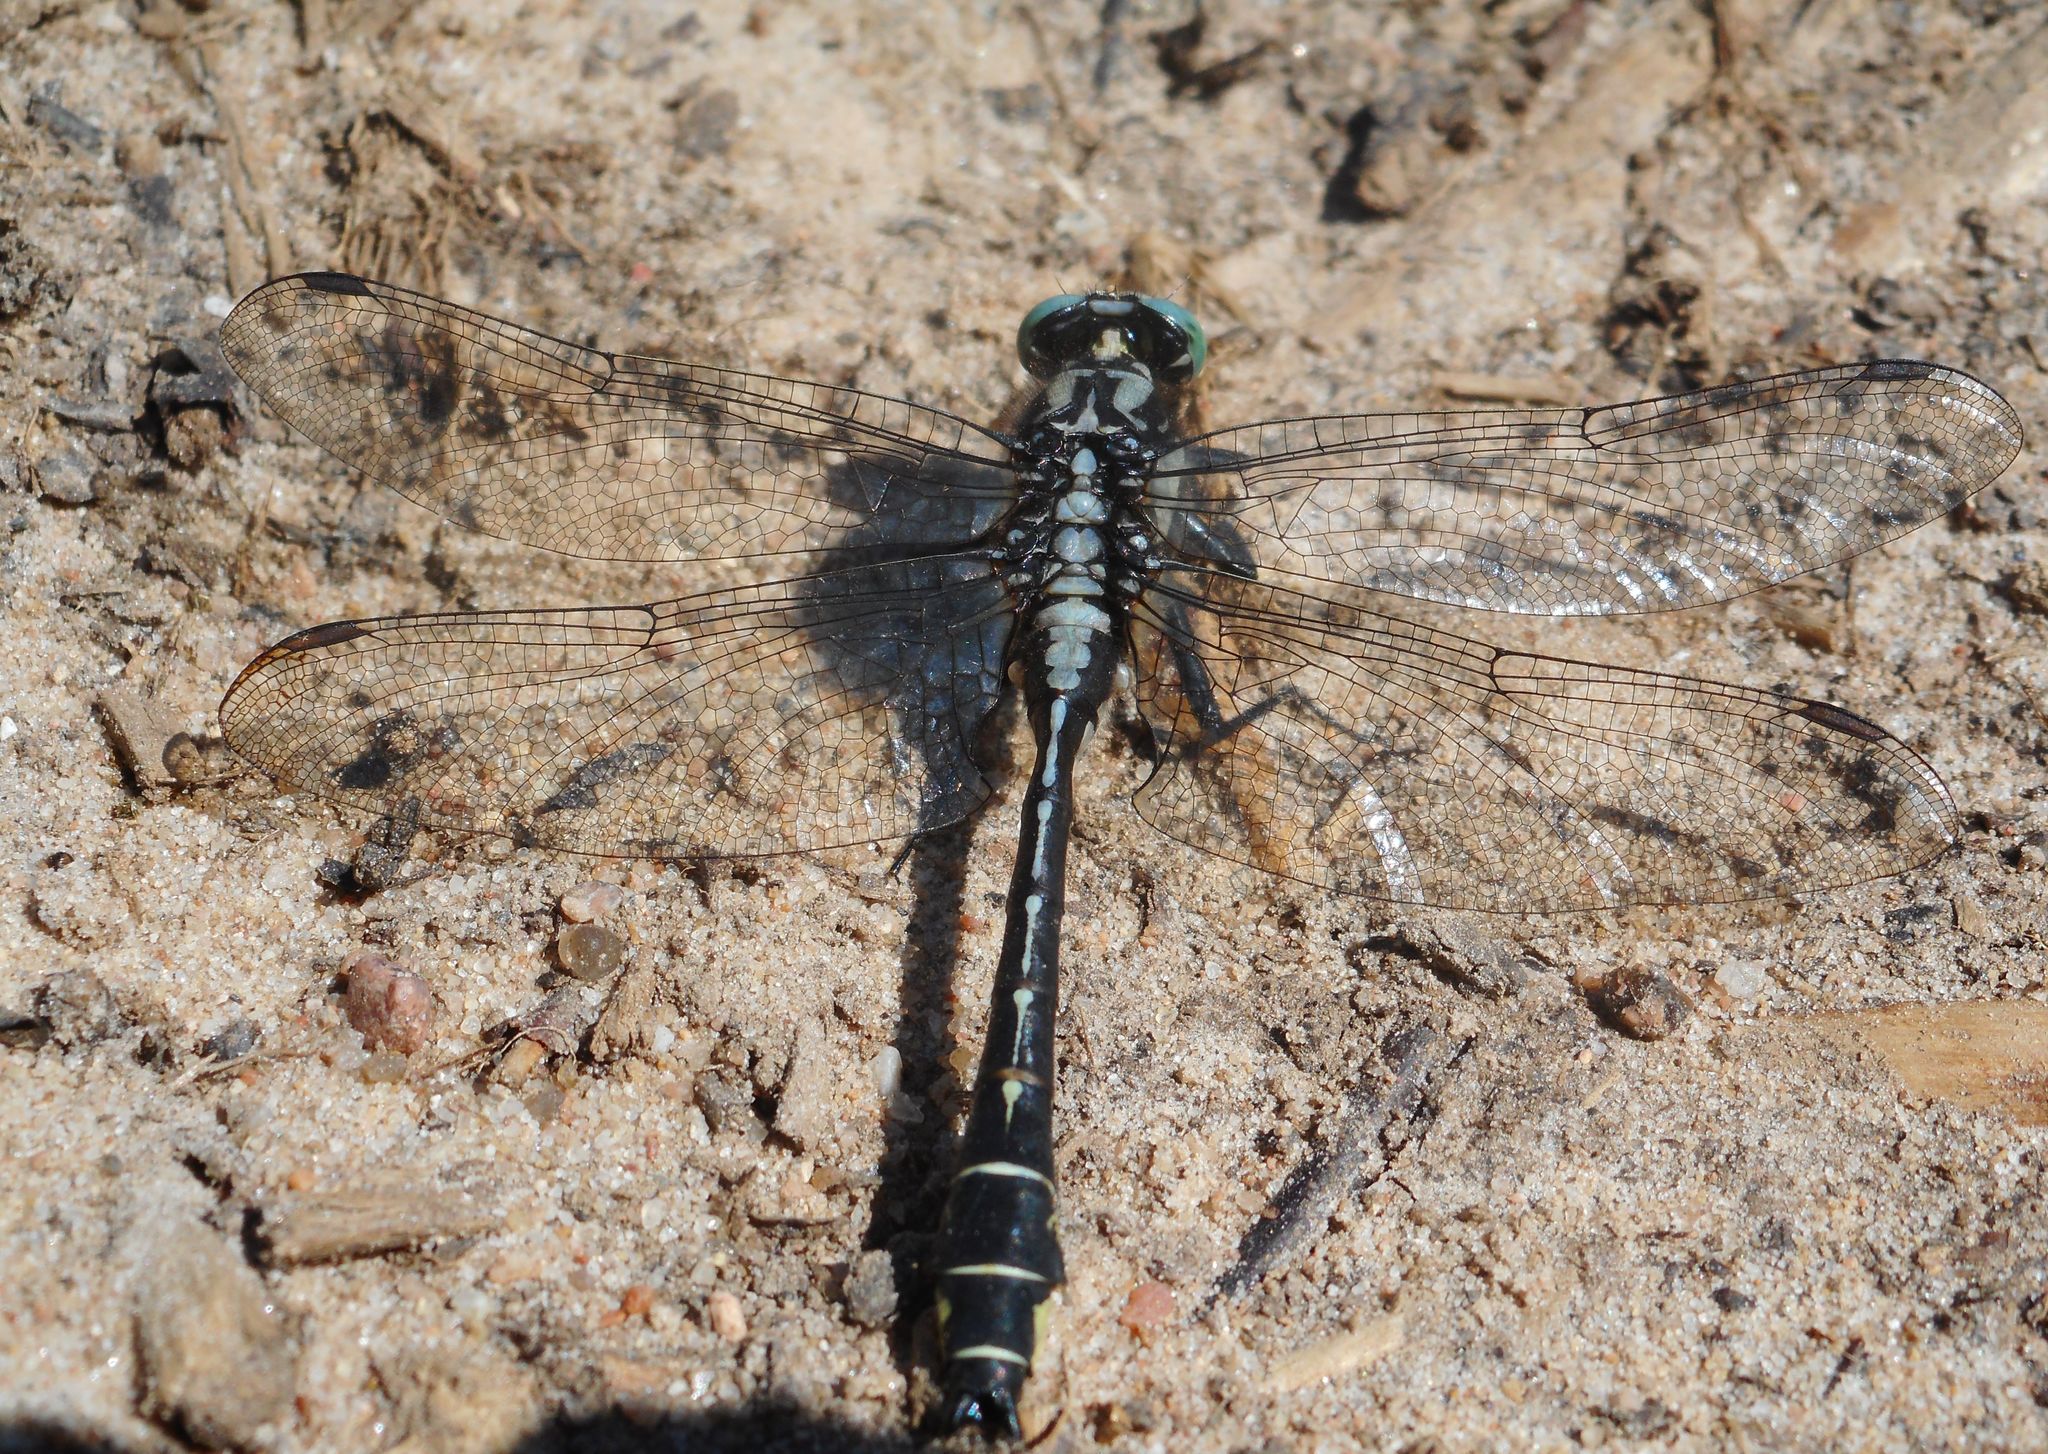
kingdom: Animalia
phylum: Arthropoda
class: Insecta
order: Odonata
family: Gomphidae
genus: Gomphus
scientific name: Gomphus vulgatissimus
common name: Club-tailed dragonfly
